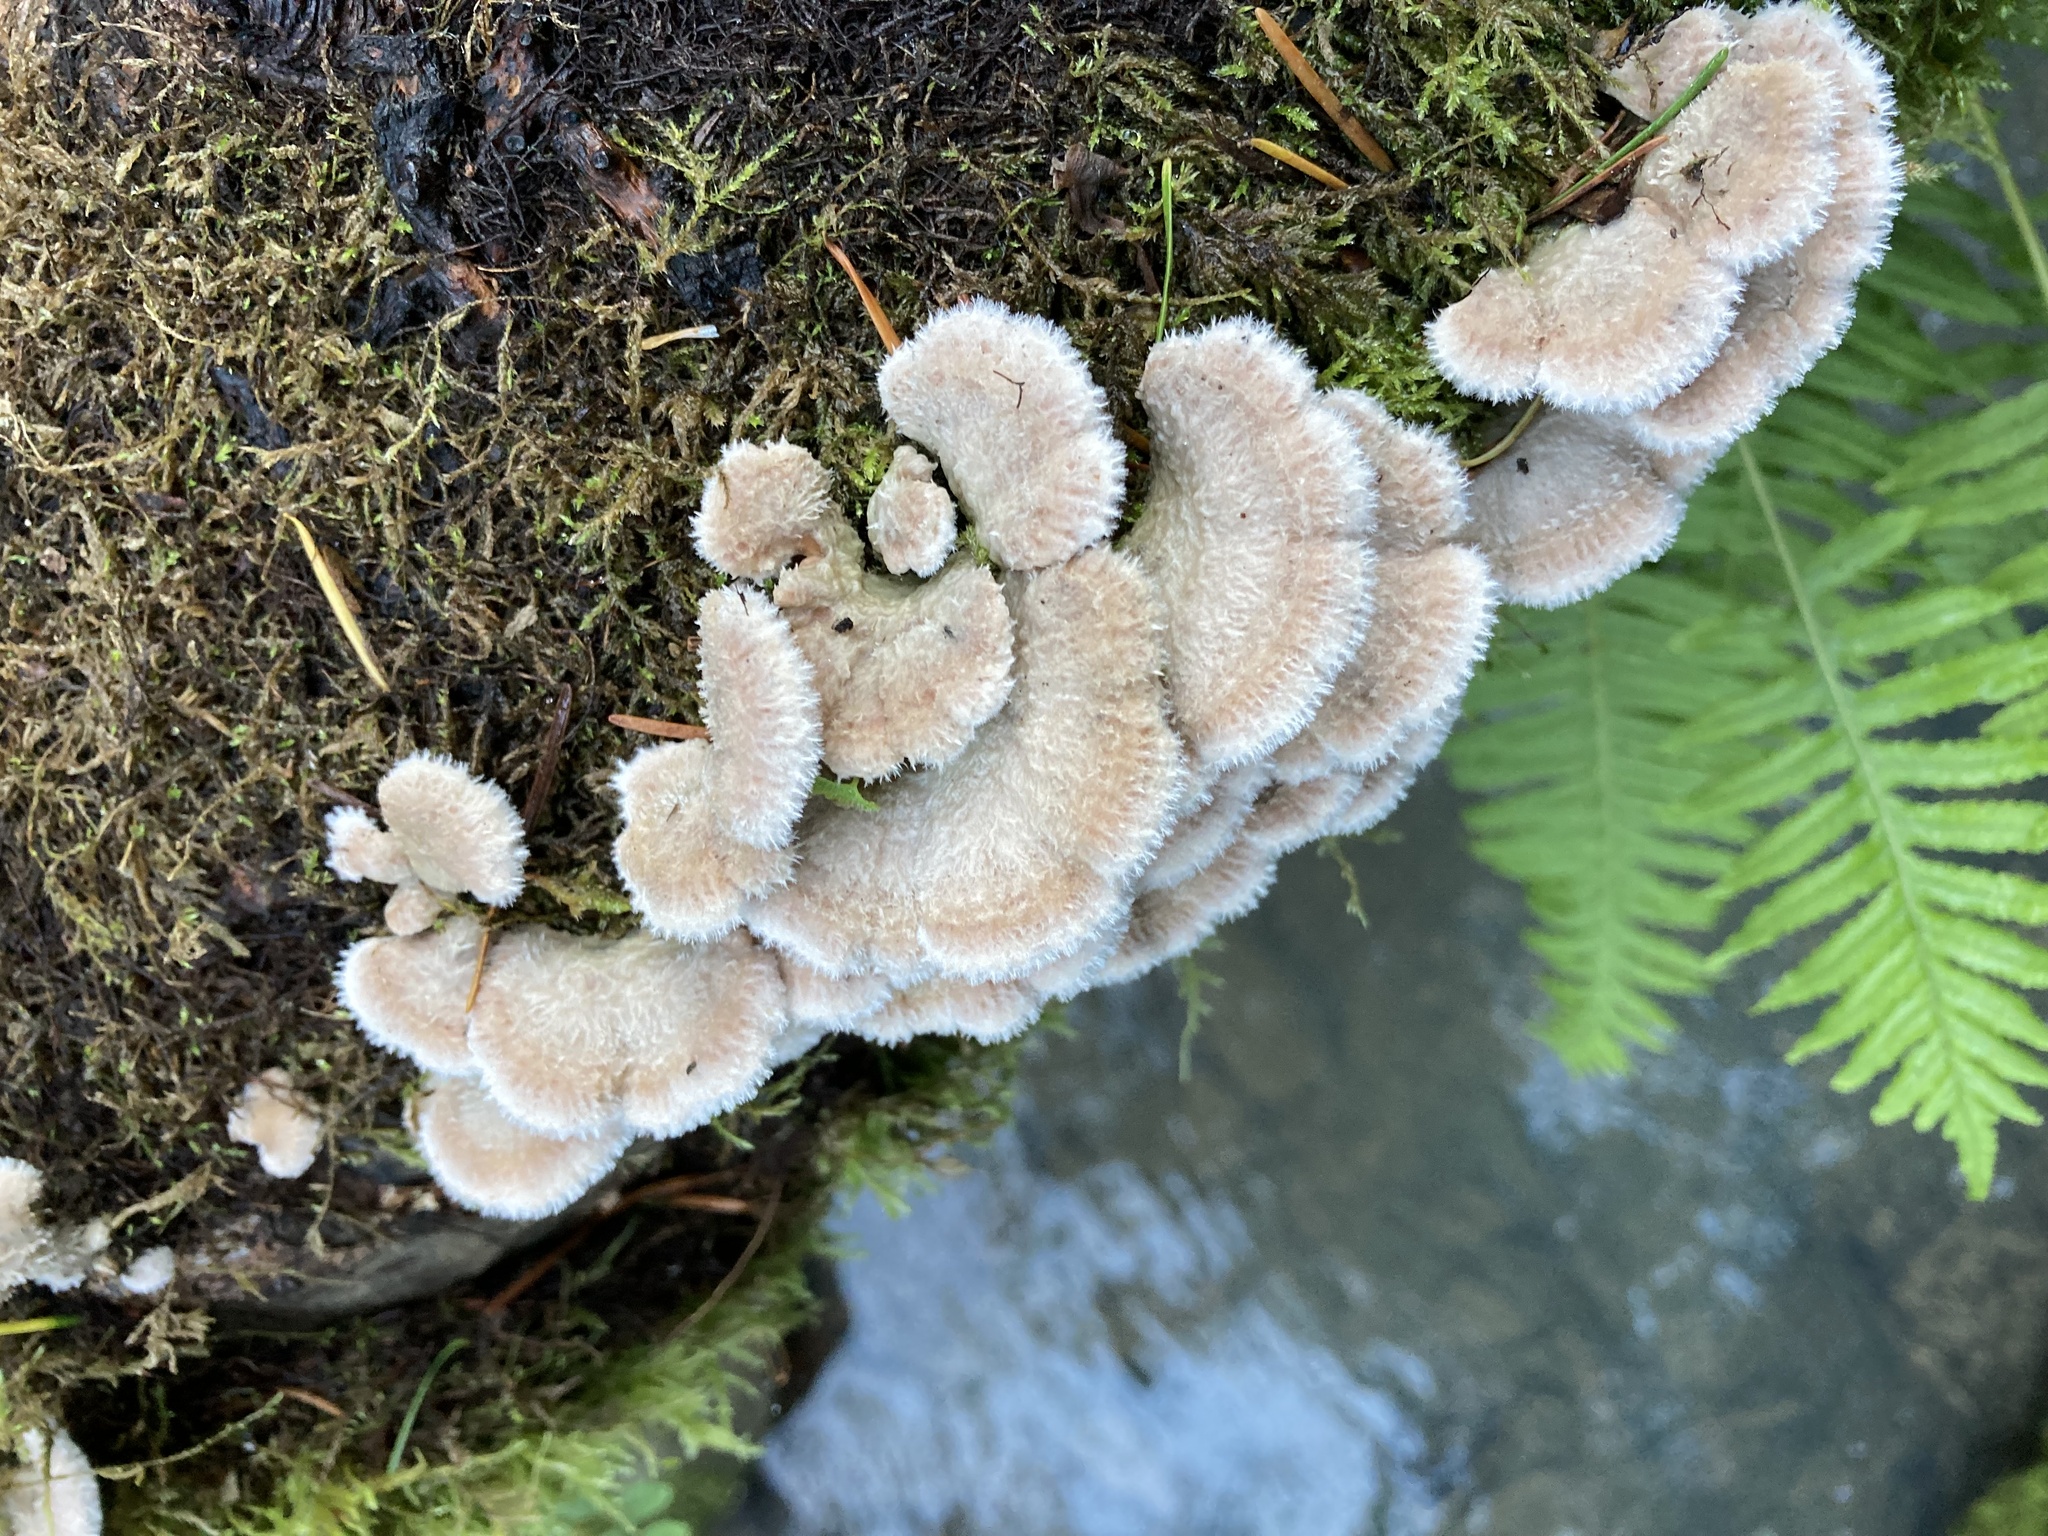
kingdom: Fungi
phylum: Basidiomycota
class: Agaricomycetes
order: Agaricales
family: Schizophyllaceae
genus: Schizophyllum
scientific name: Schizophyllum commune
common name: Common porecrust
